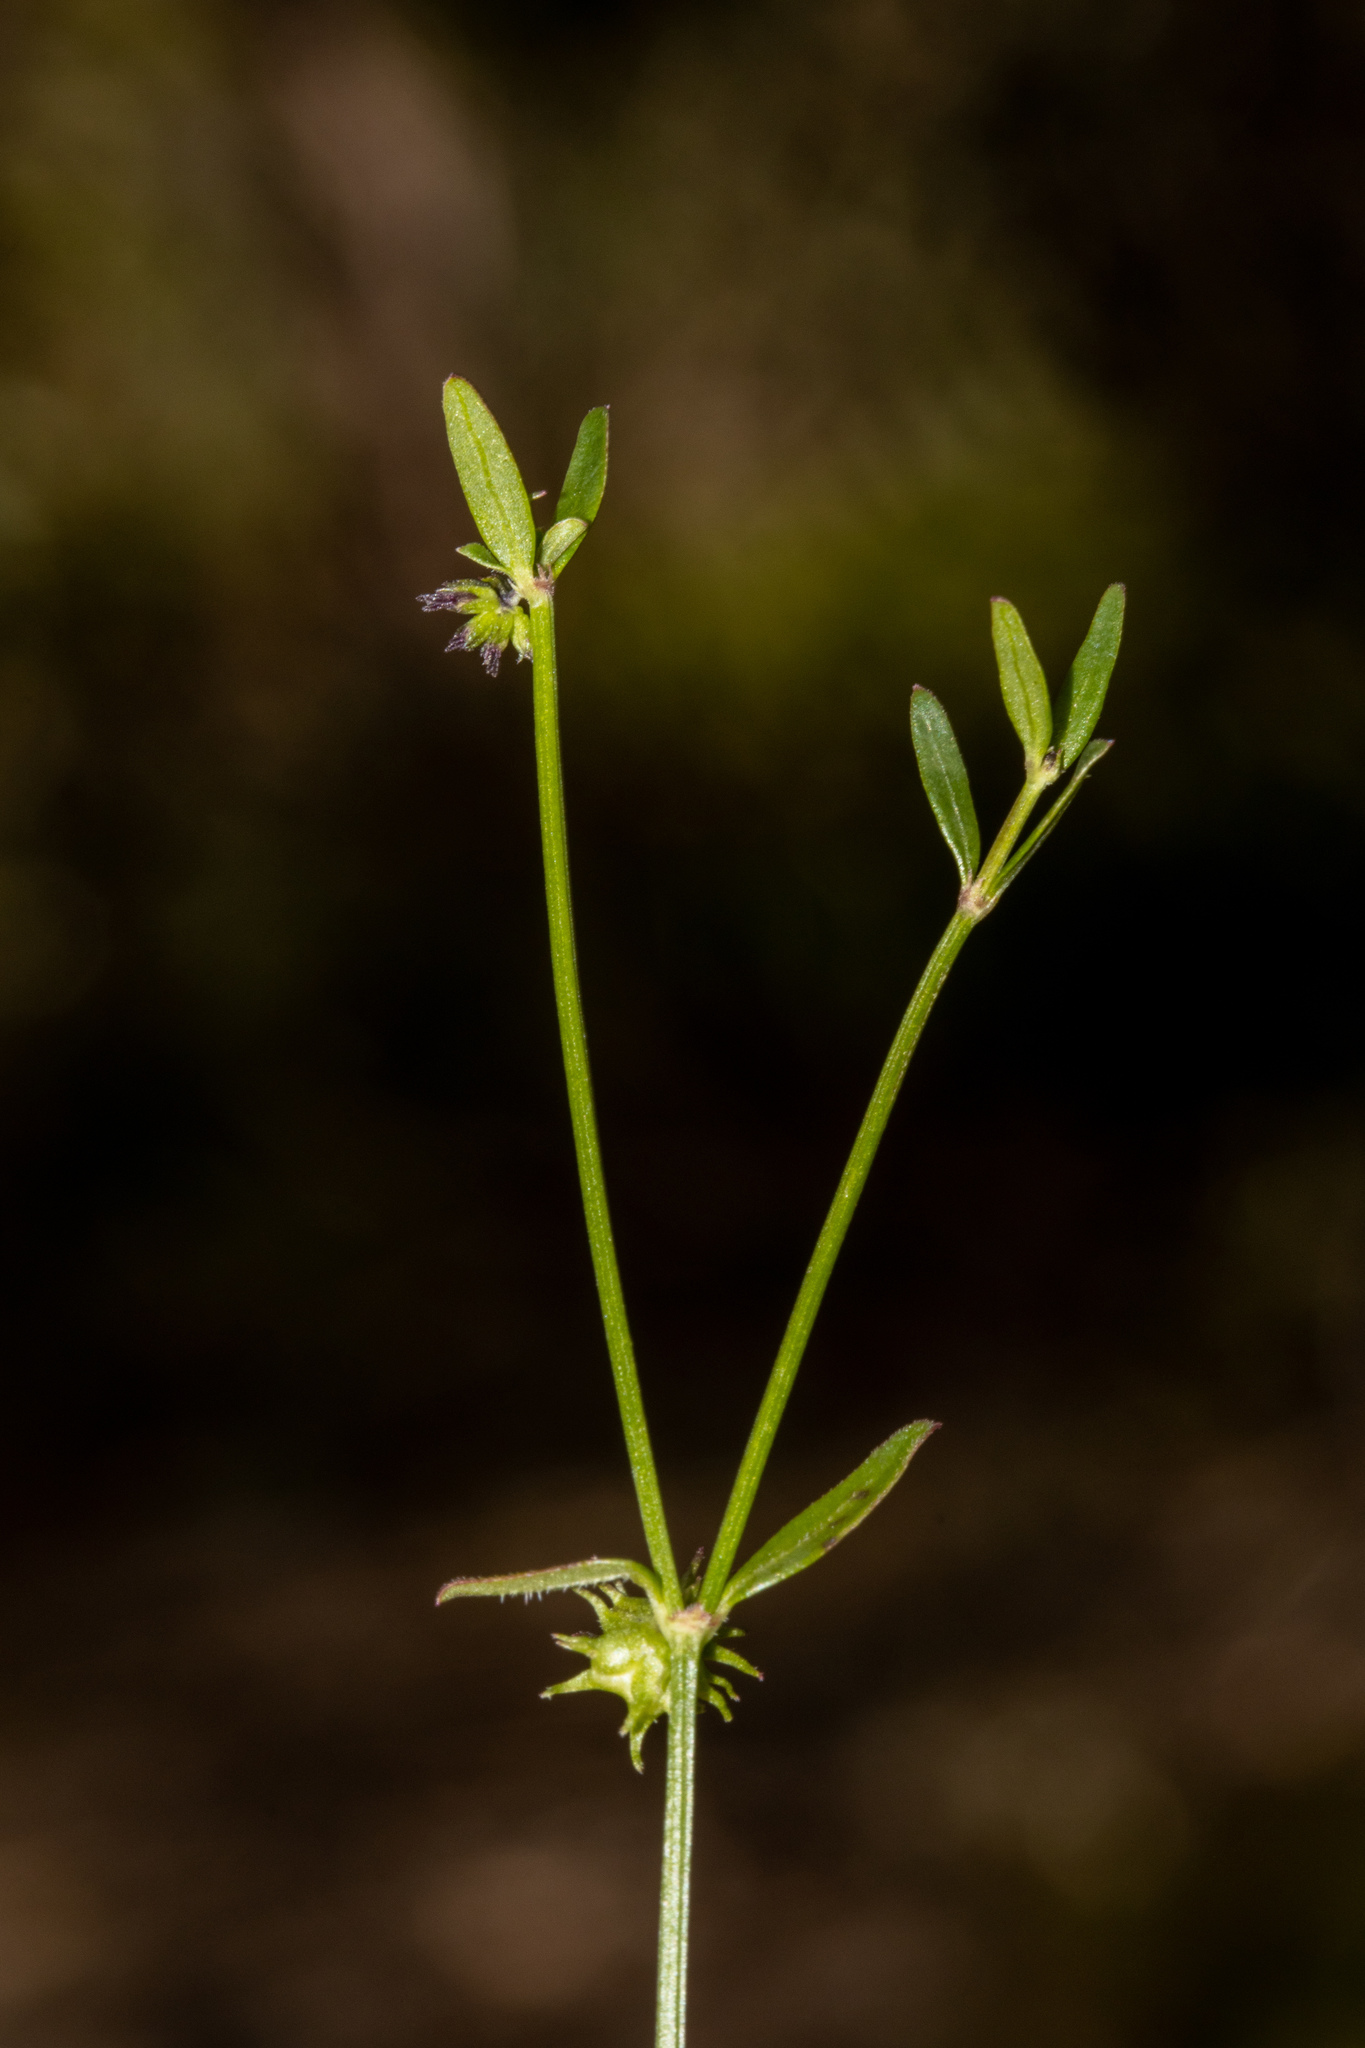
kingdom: Plantae
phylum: Tracheophyta
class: Magnoliopsida
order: Gentianales
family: Rubiaceae
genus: Opercularia
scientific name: Opercularia varia
